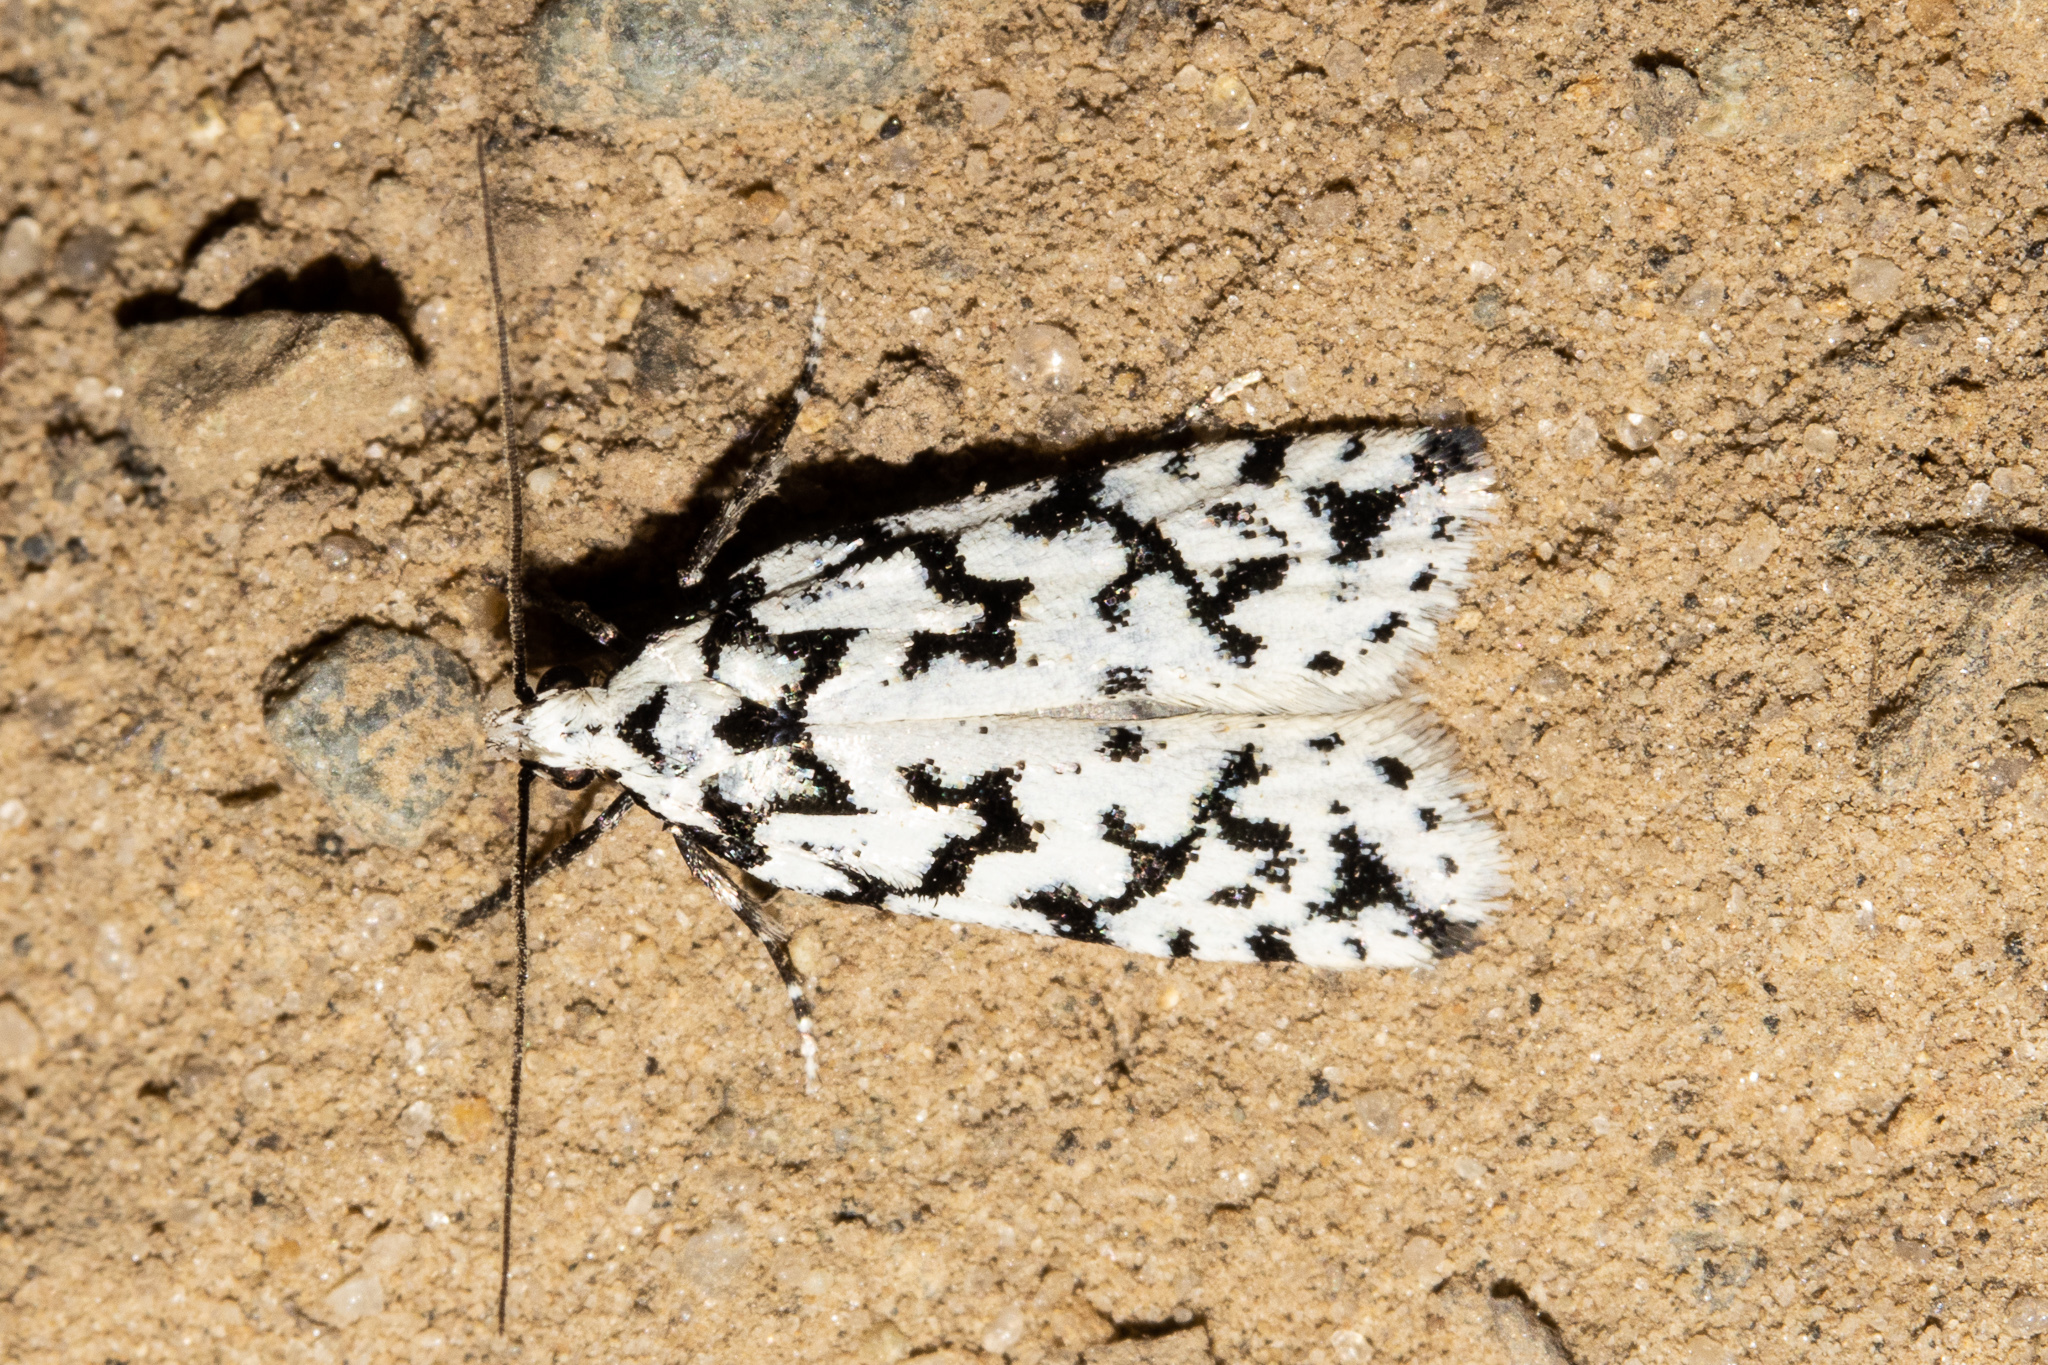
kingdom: Animalia
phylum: Arthropoda
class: Insecta
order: Lepidoptera
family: Oecophoridae
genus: Izatha
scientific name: Izatha katadiktya
